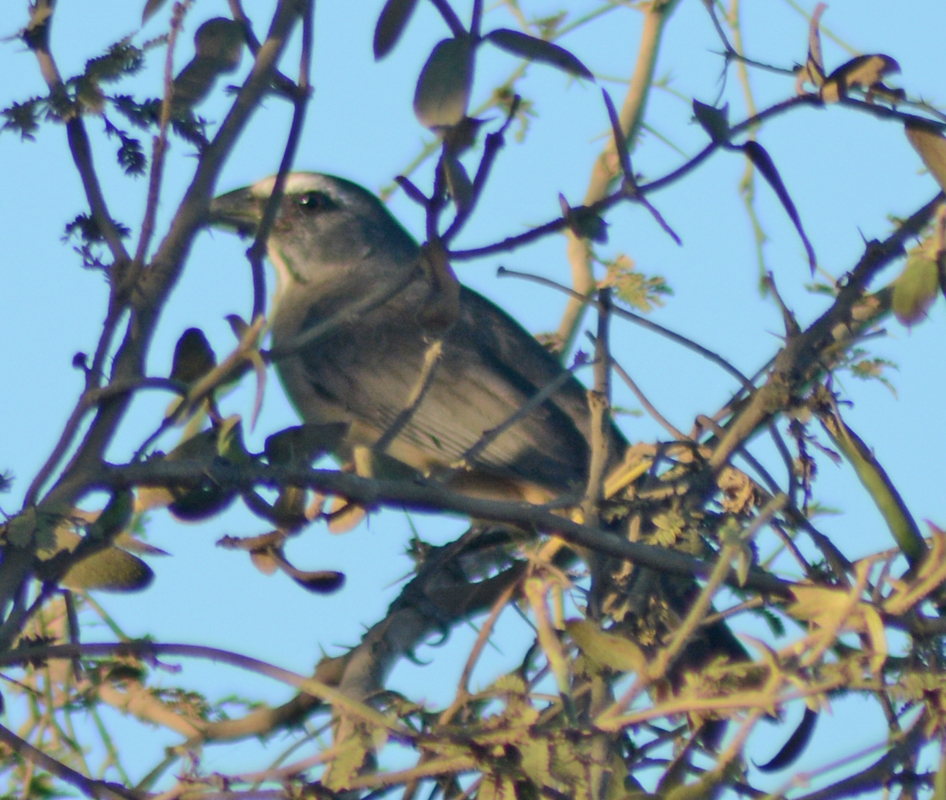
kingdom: Animalia
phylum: Chordata
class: Aves
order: Passeriformes
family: Thraupidae
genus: Saltator
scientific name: Saltator grandis
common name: Cinnamon-bellied saltator
